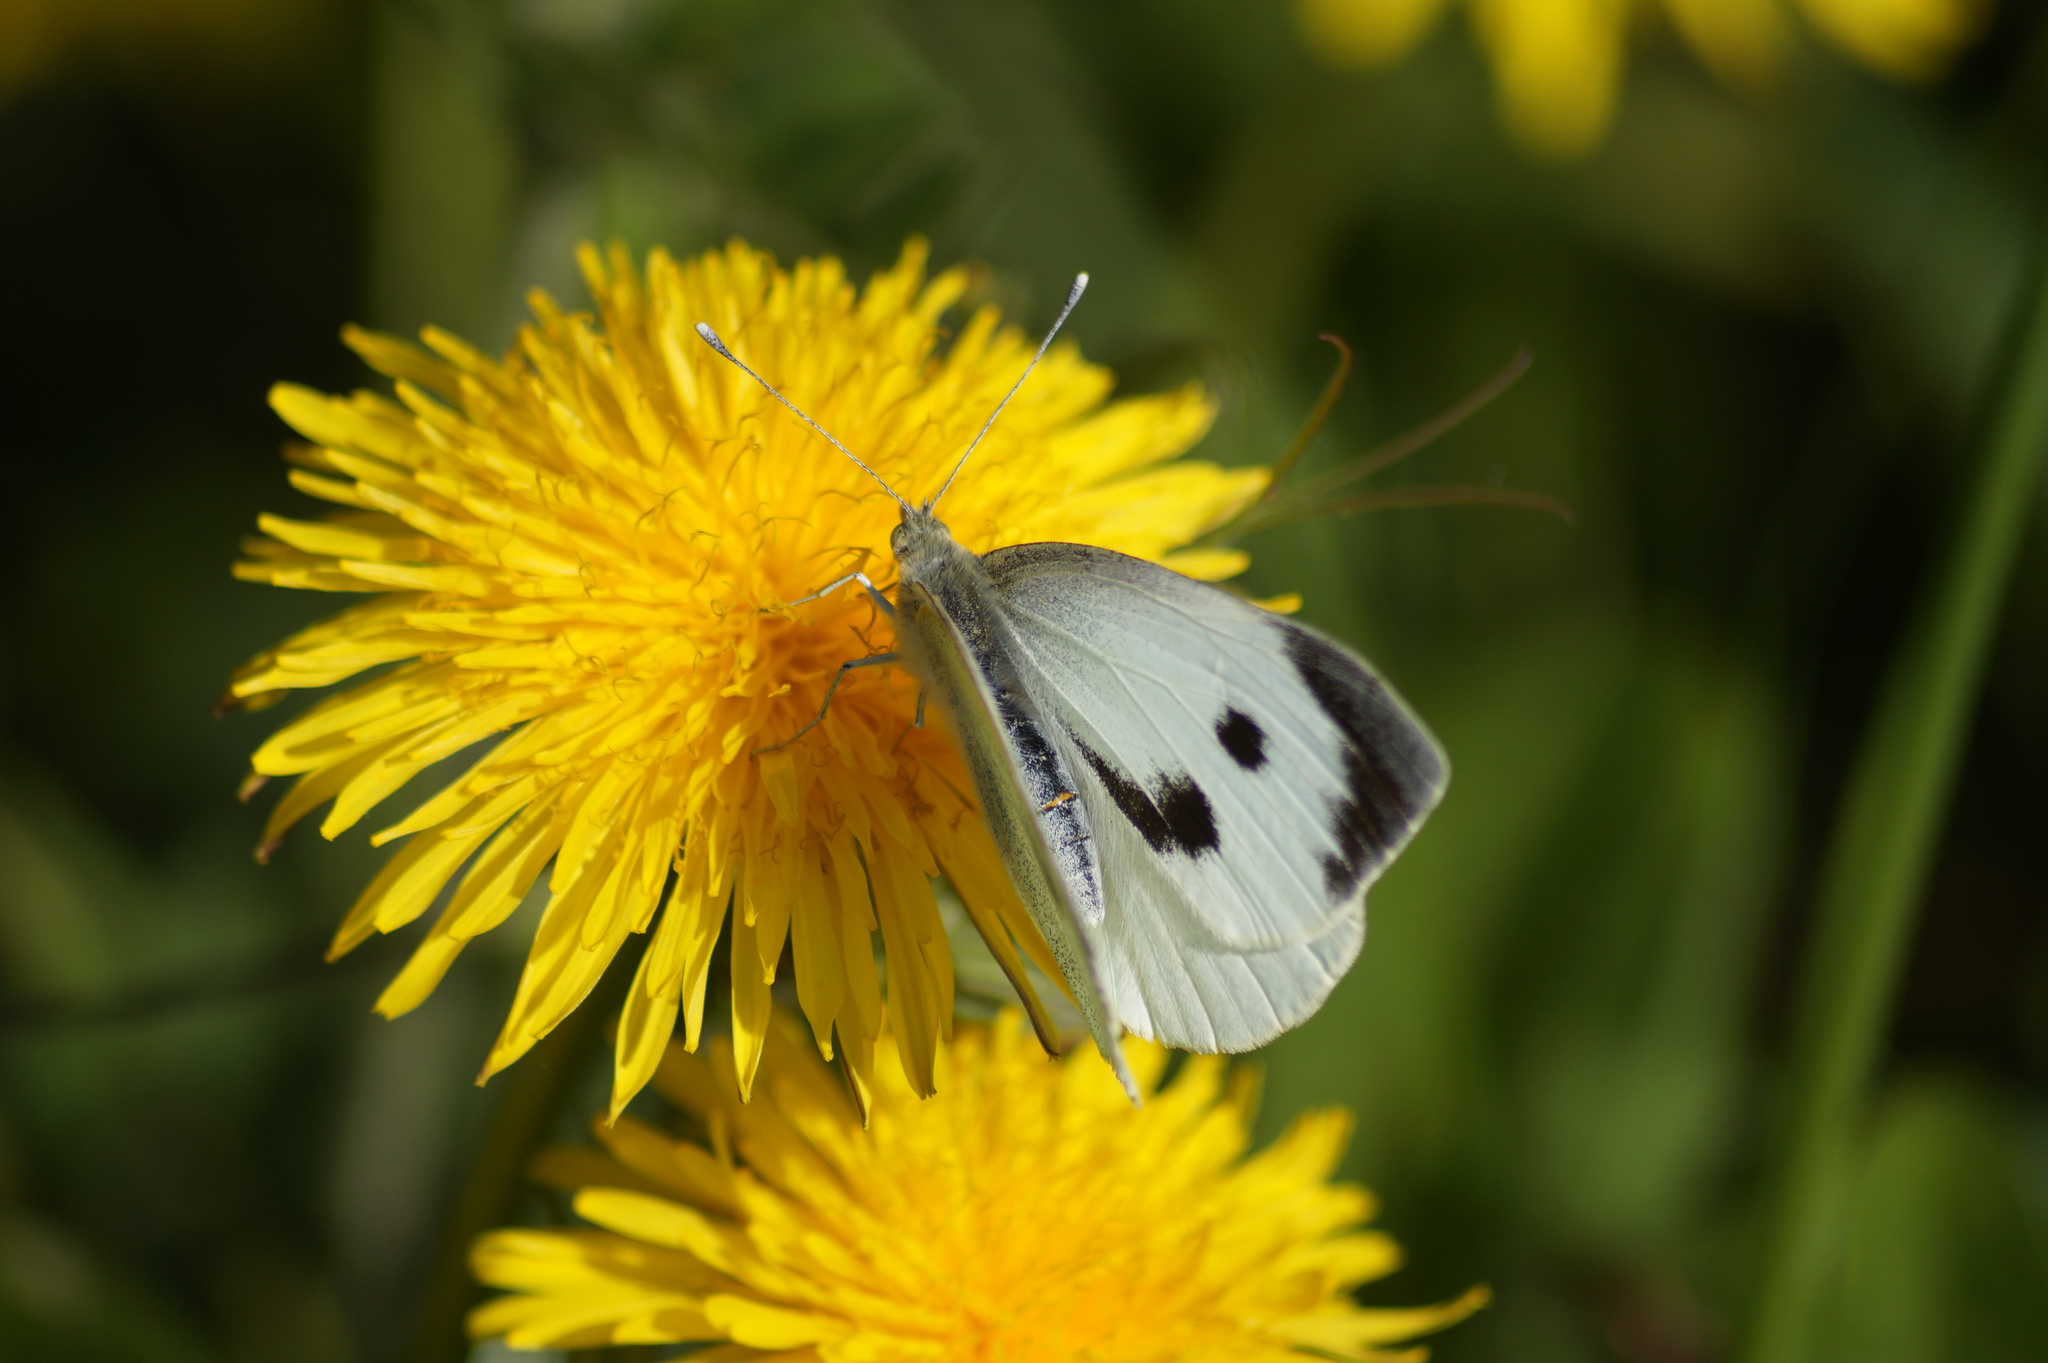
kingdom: Animalia
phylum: Arthropoda
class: Insecta
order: Lepidoptera
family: Pieridae
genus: Pieris
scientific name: Pieris brassicae
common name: Large white
